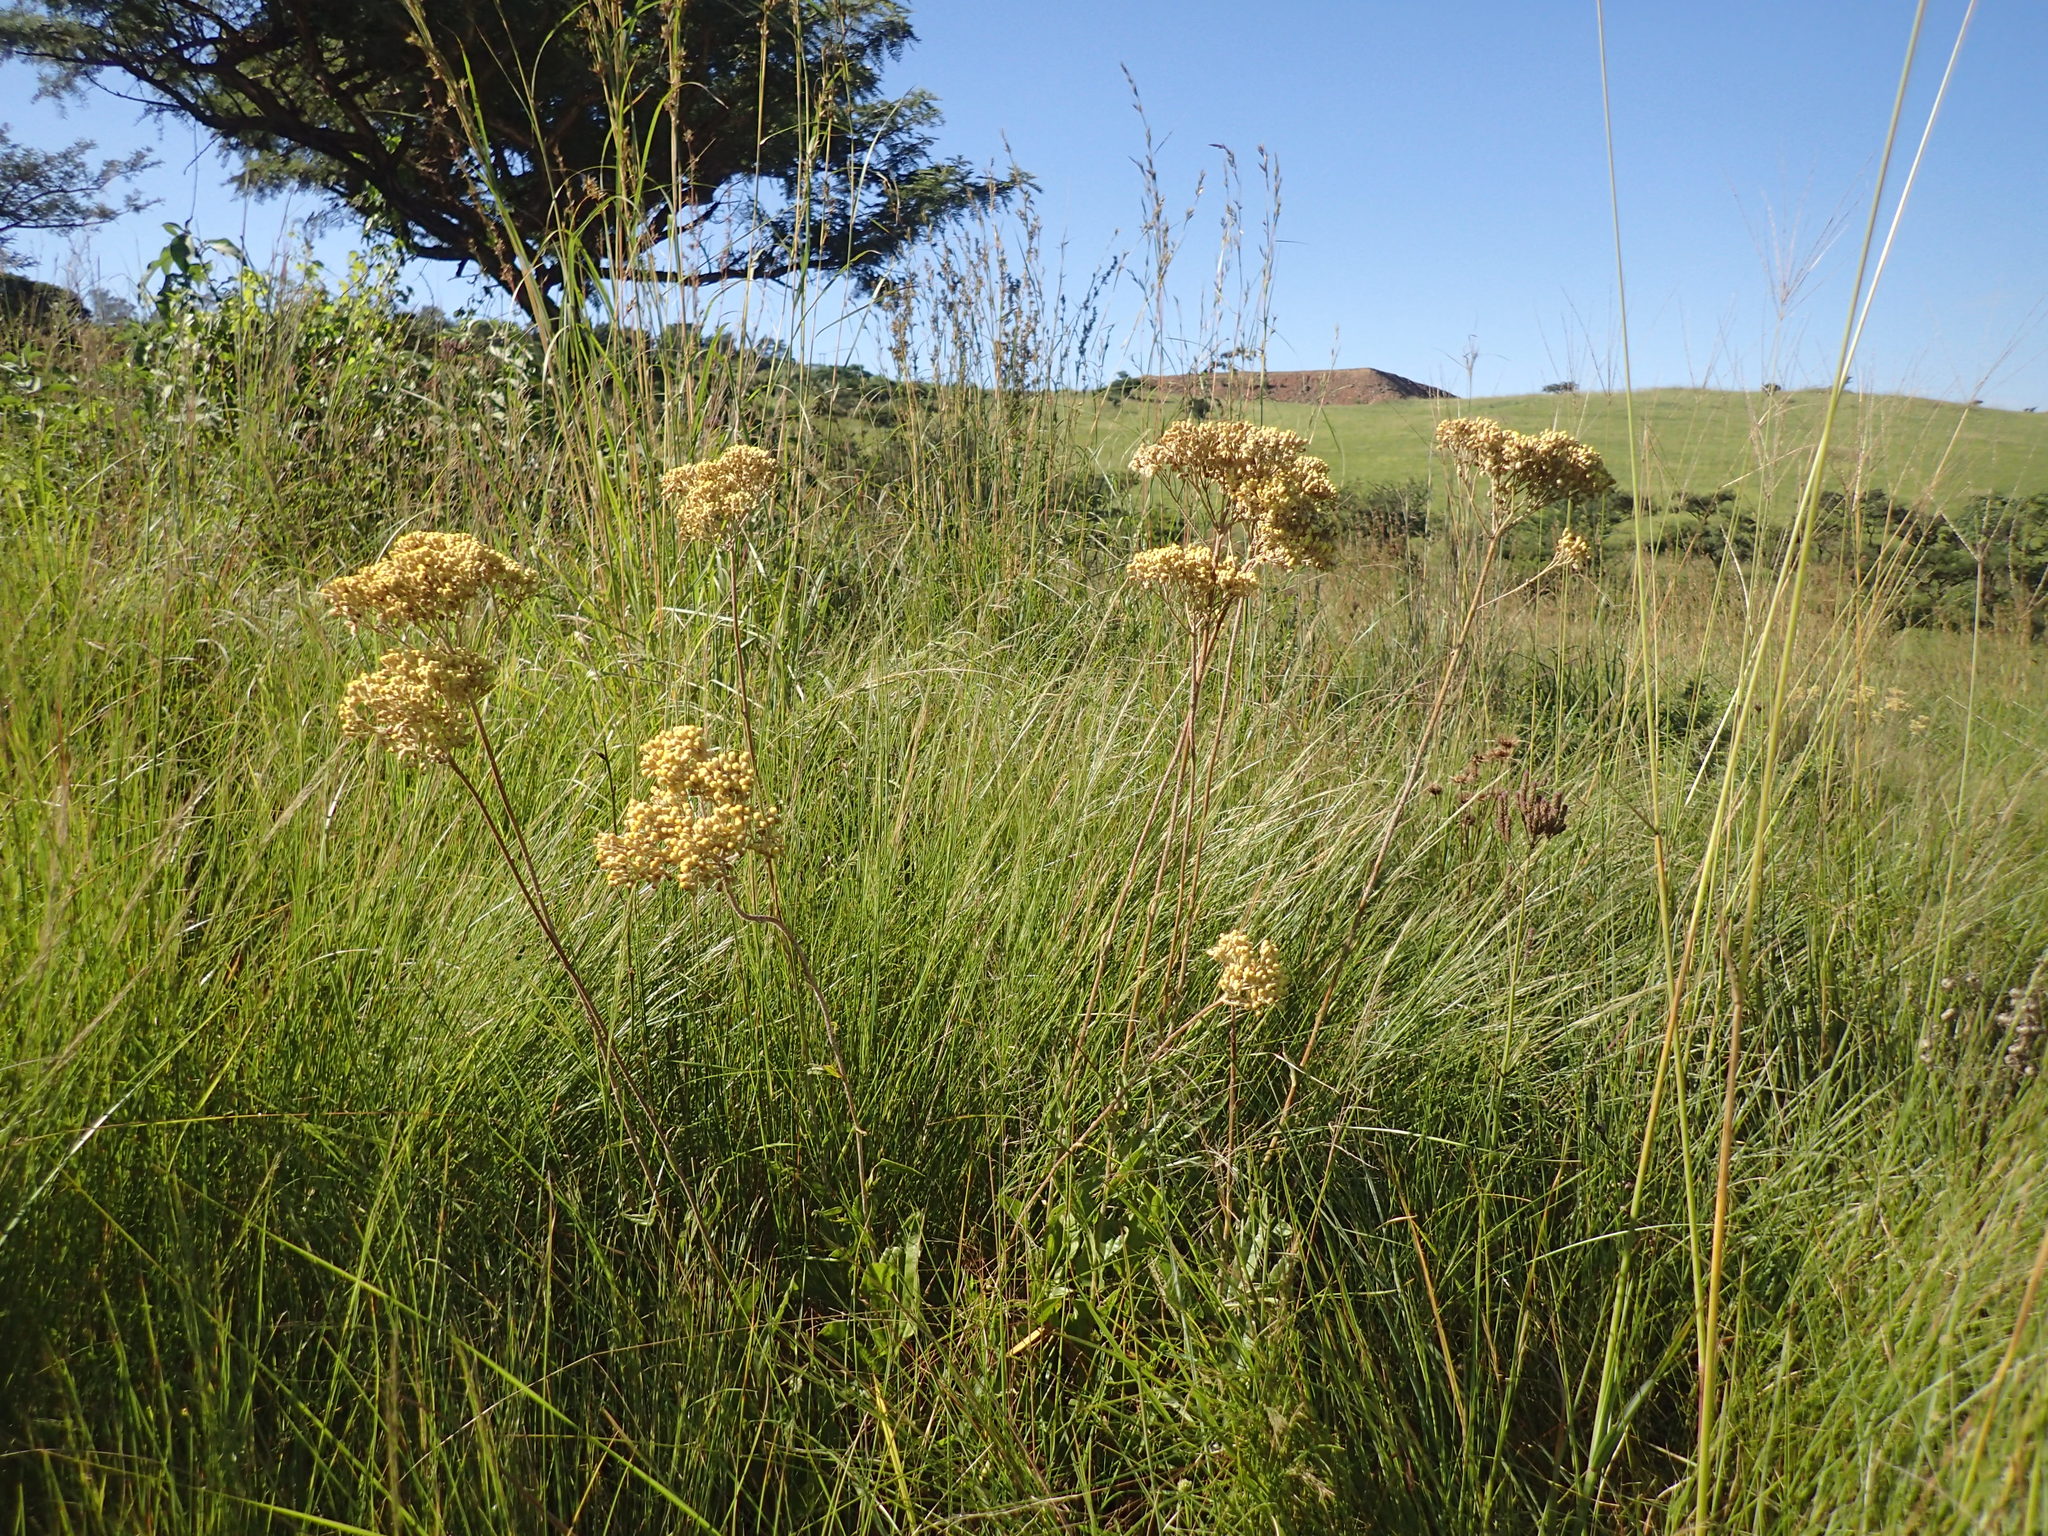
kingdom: Plantae
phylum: Tracheophyta
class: Magnoliopsida
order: Asterales
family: Asteraceae
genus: Helichrysum
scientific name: Helichrysum nudifolium
